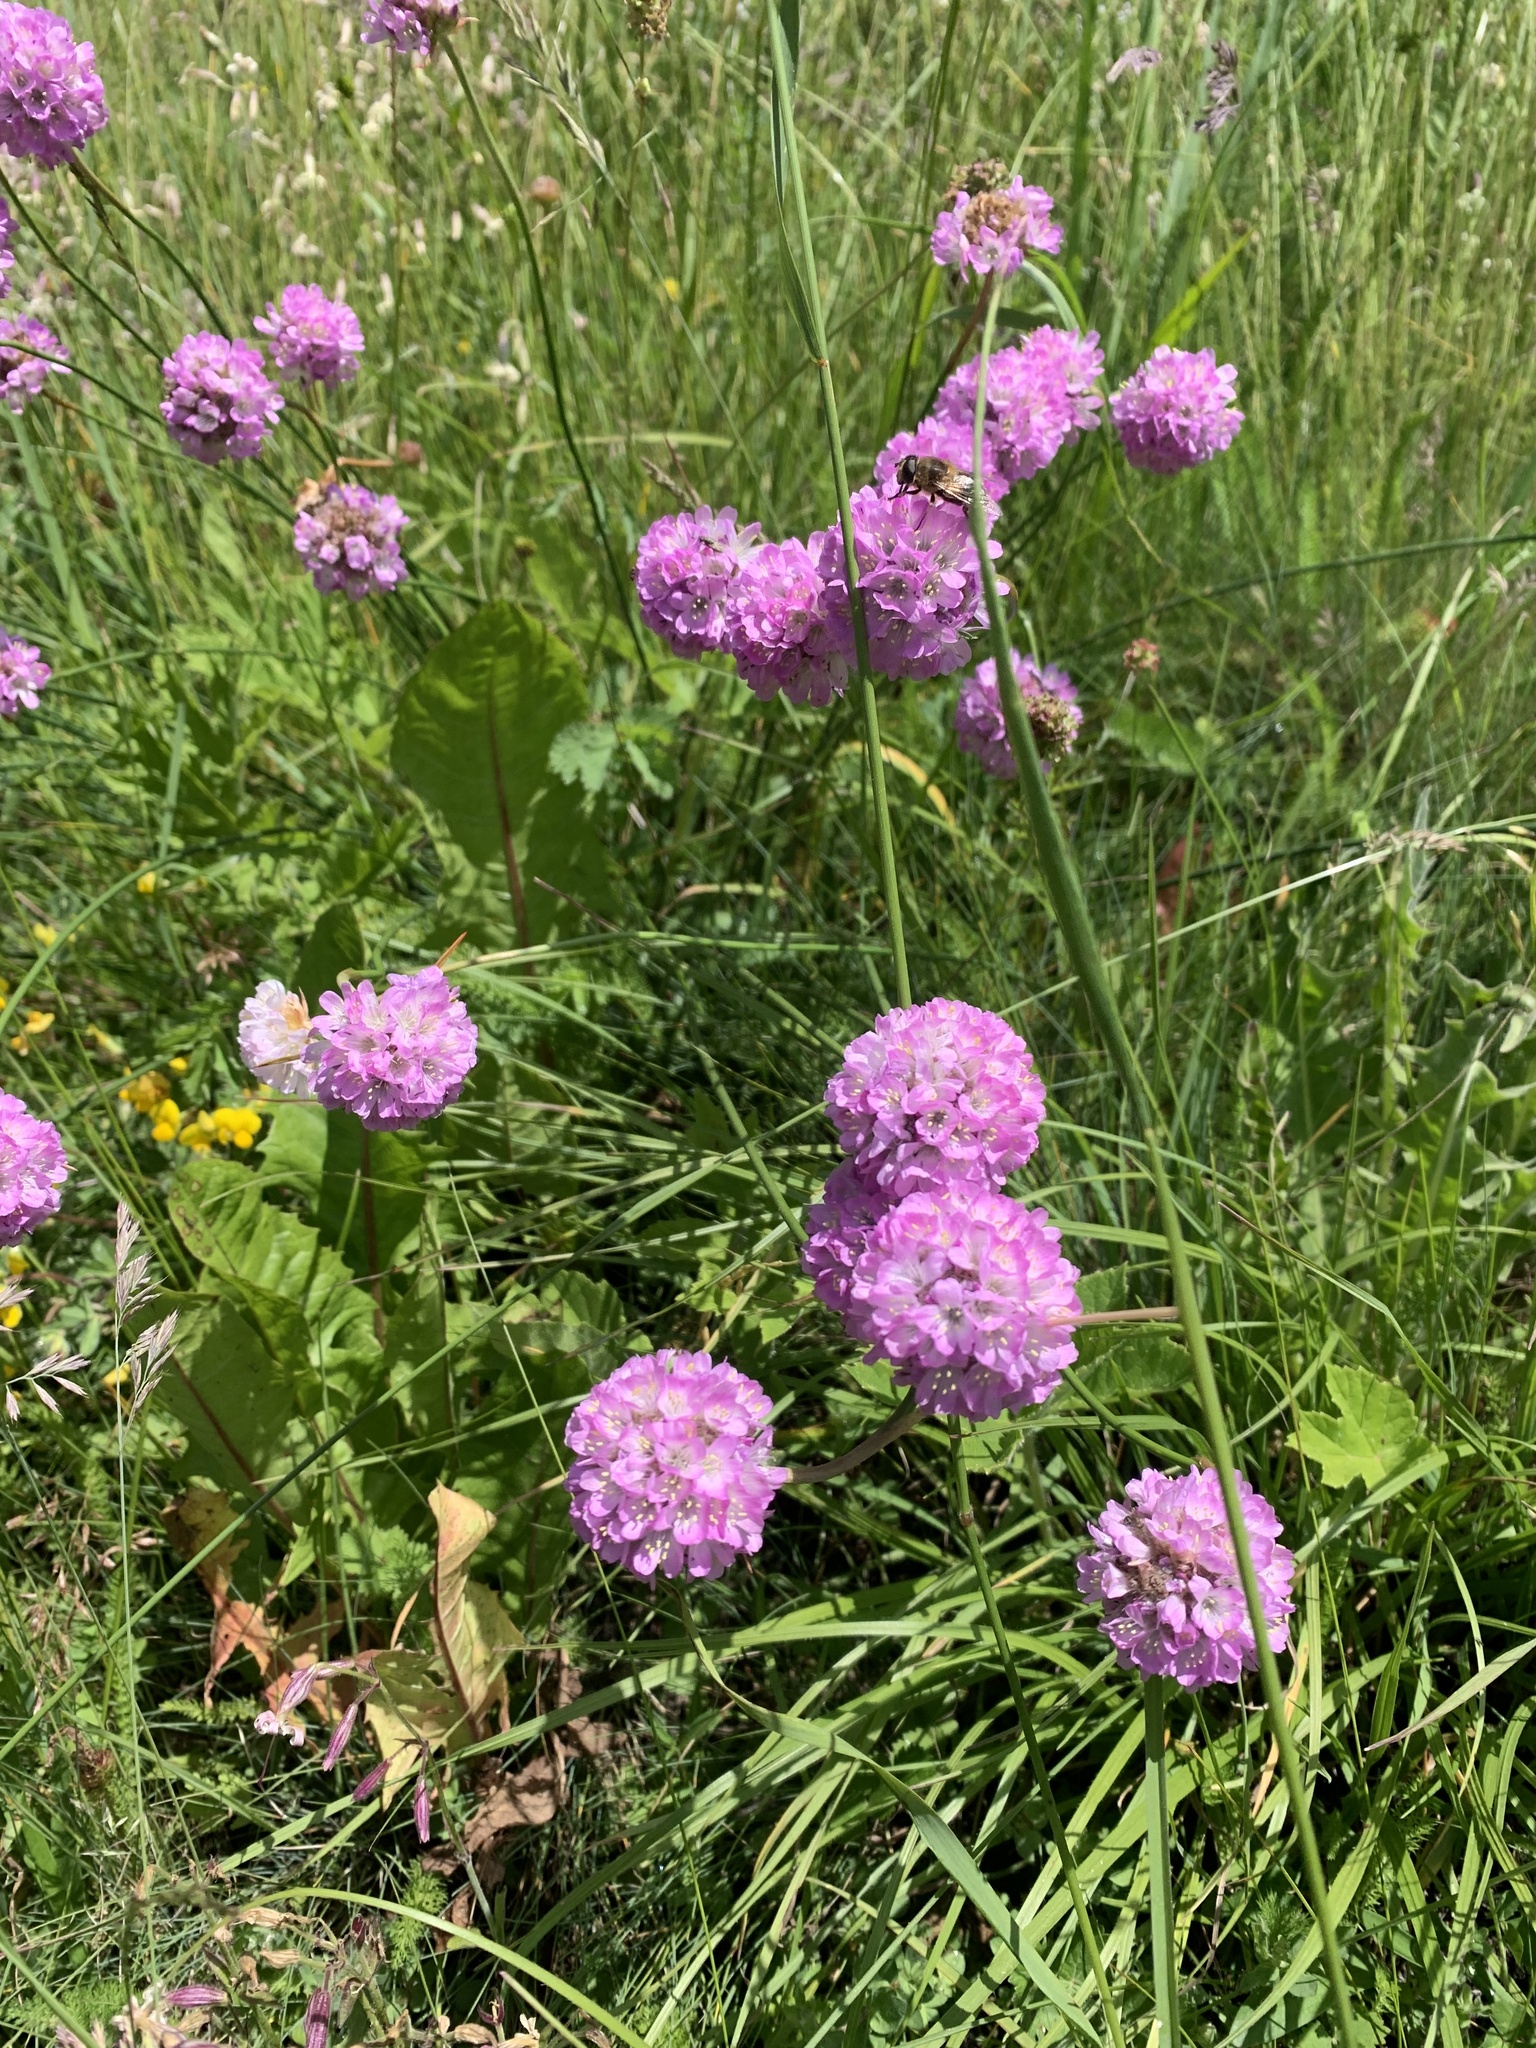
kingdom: Plantae
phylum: Tracheophyta
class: Magnoliopsida
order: Caryophyllales
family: Plumbaginaceae
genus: Armeria
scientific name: Armeria alpina
